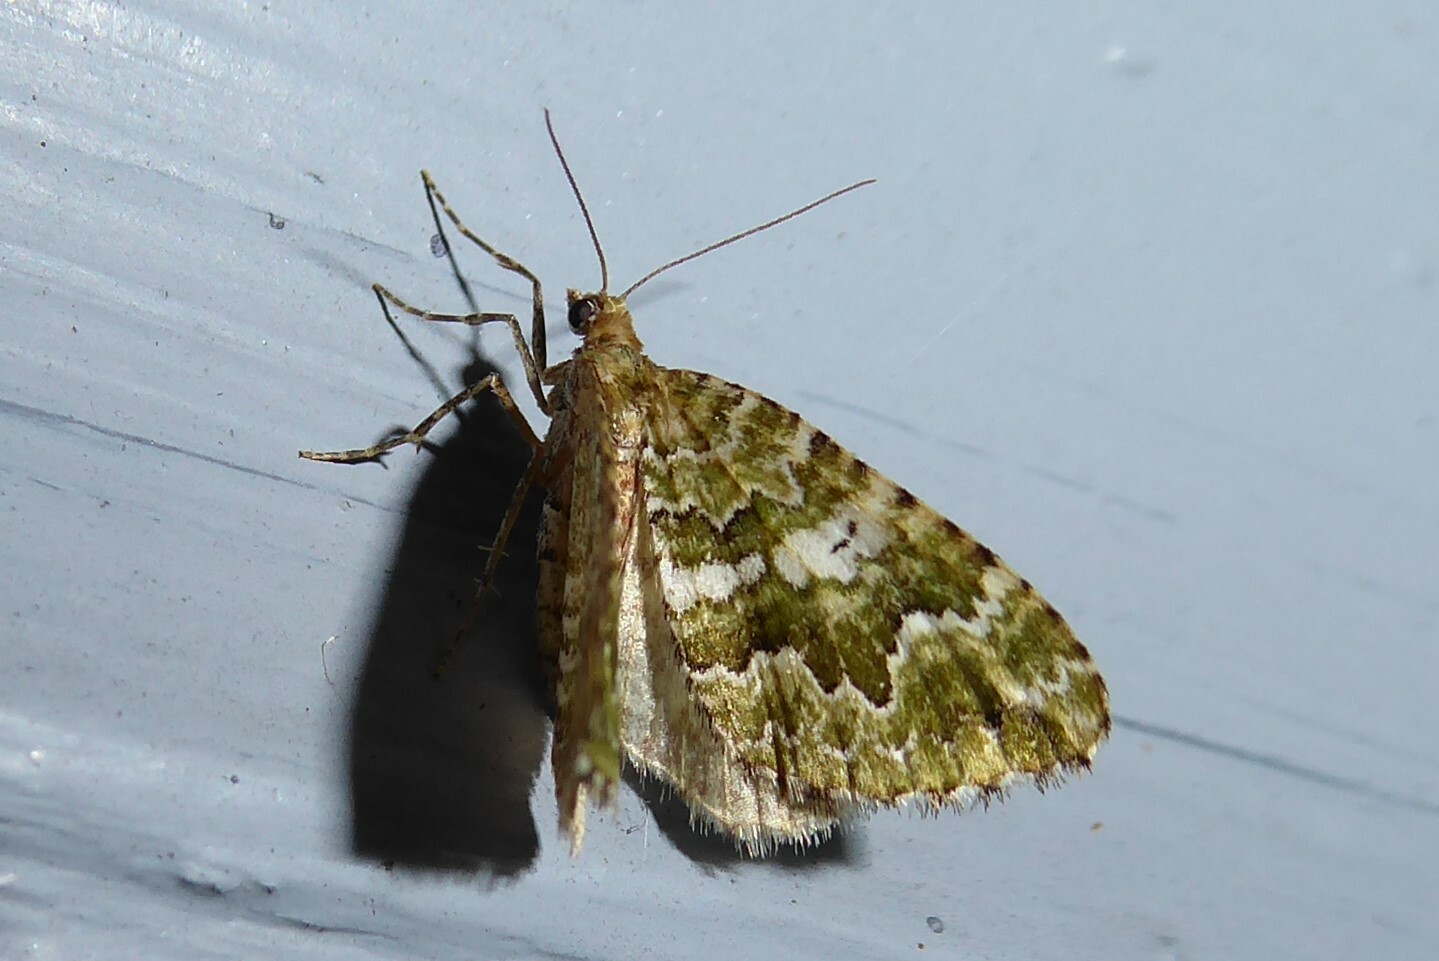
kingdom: Animalia
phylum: Arthropoda
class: Insecta
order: Lepidoptera
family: Geometridae
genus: Asaphodes
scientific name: Asaphodes beata
